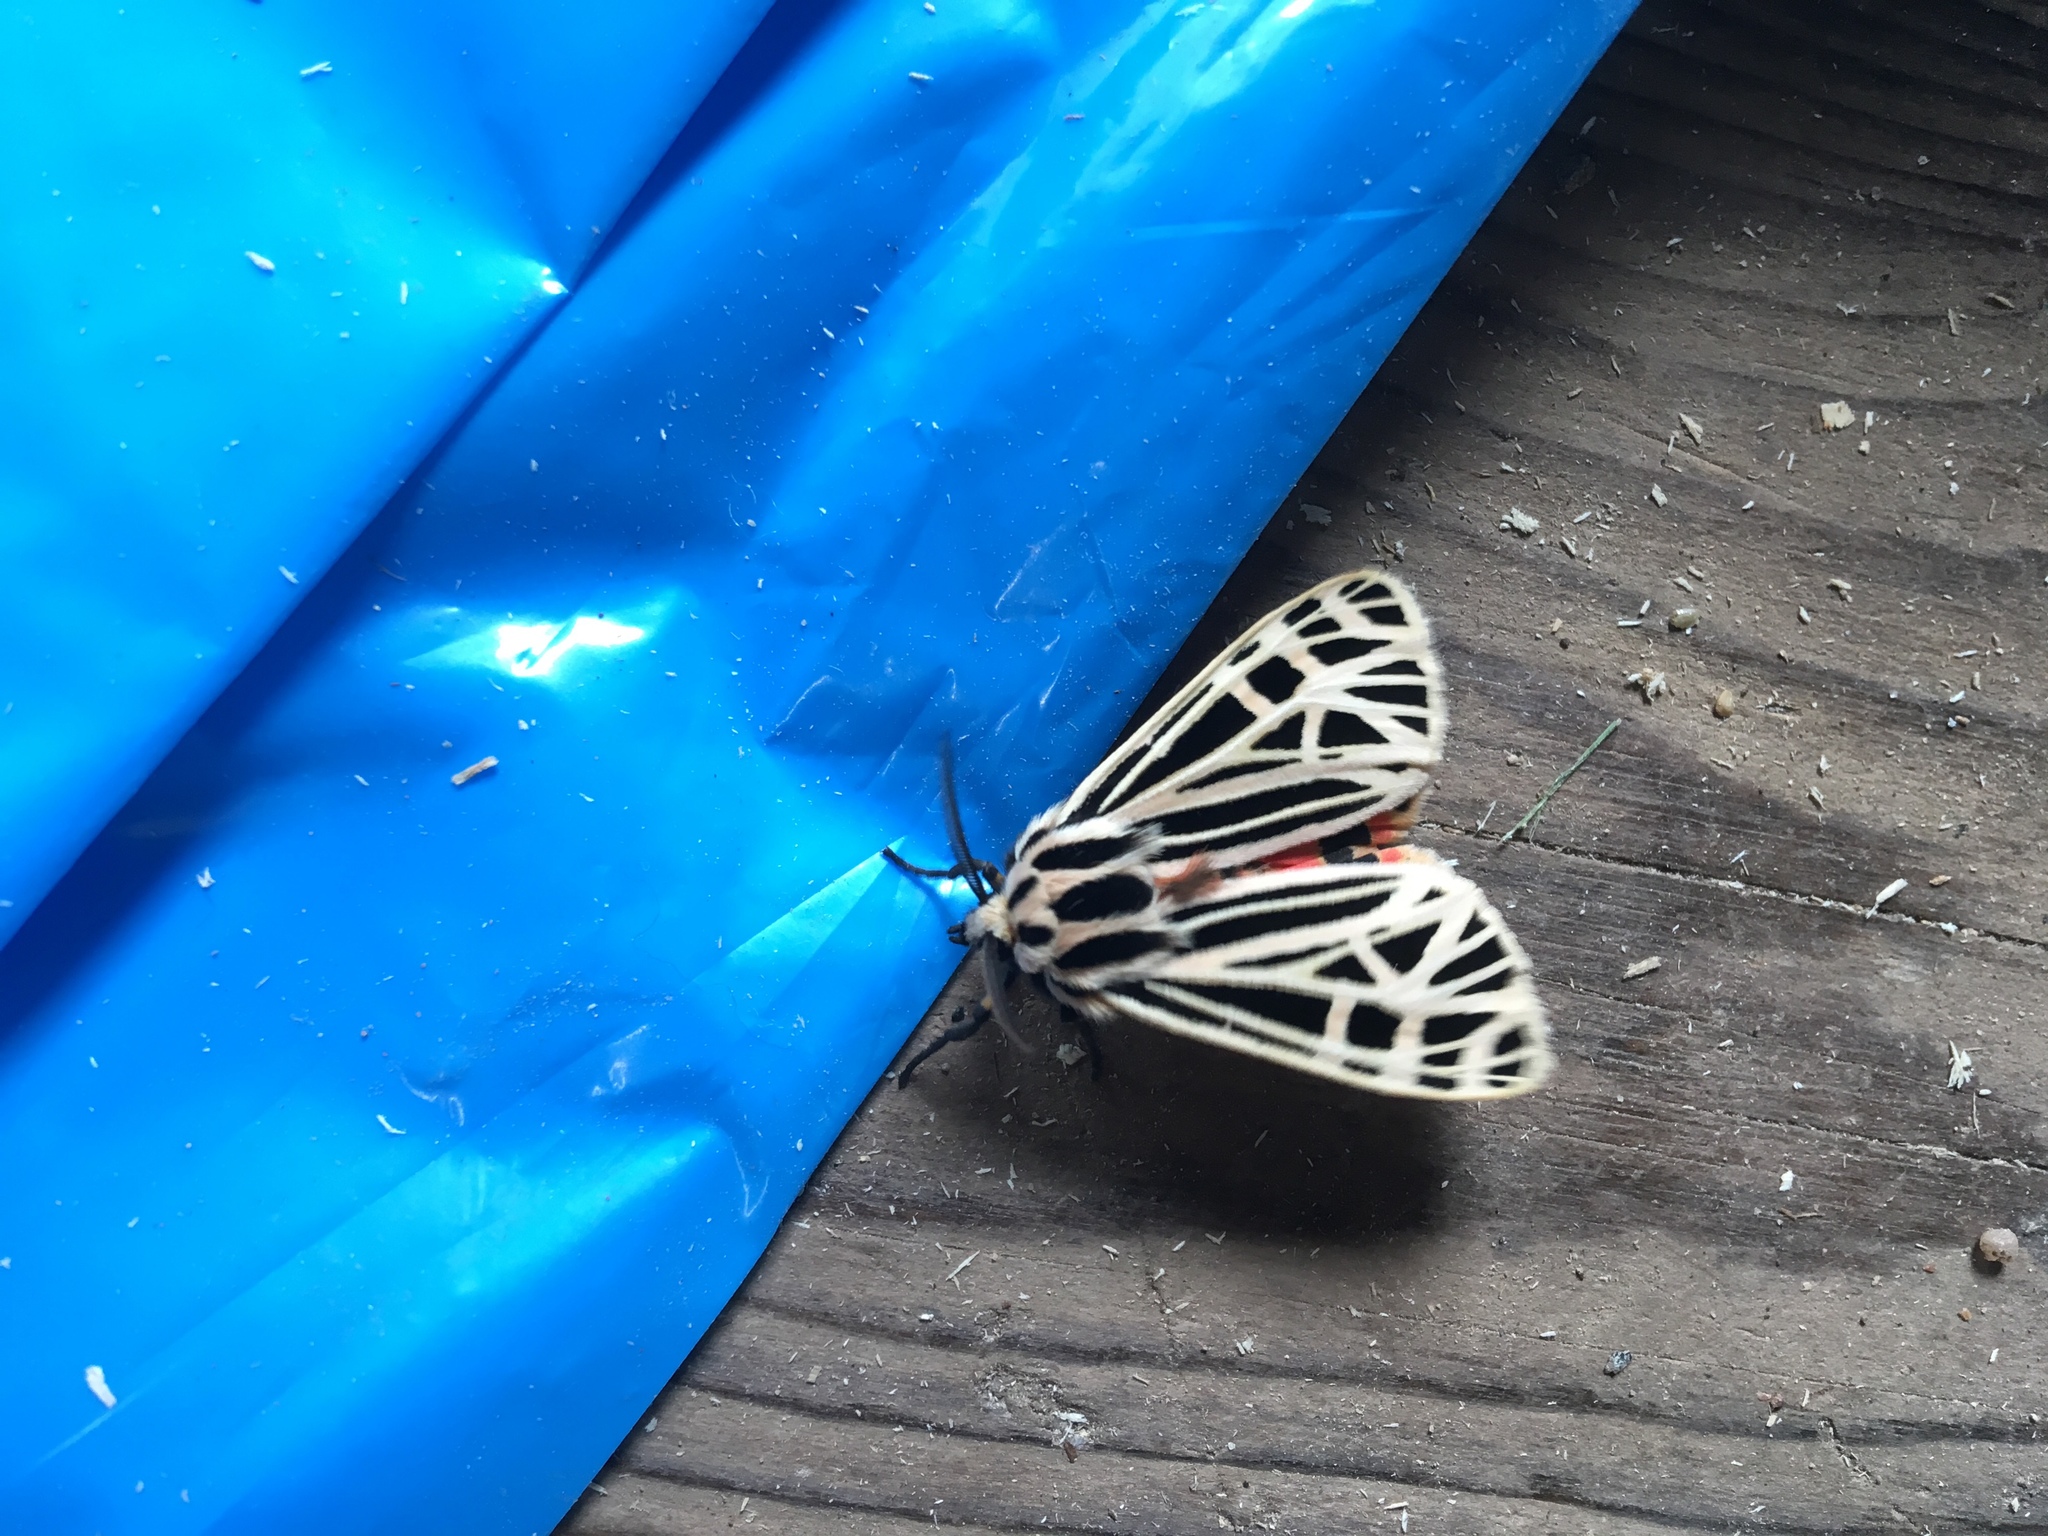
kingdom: Animalia
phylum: Arthropoda
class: Insecta
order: Lepidoptera
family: Erebidae
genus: Grammia
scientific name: Grammia virgo
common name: Virgin tiger moth
